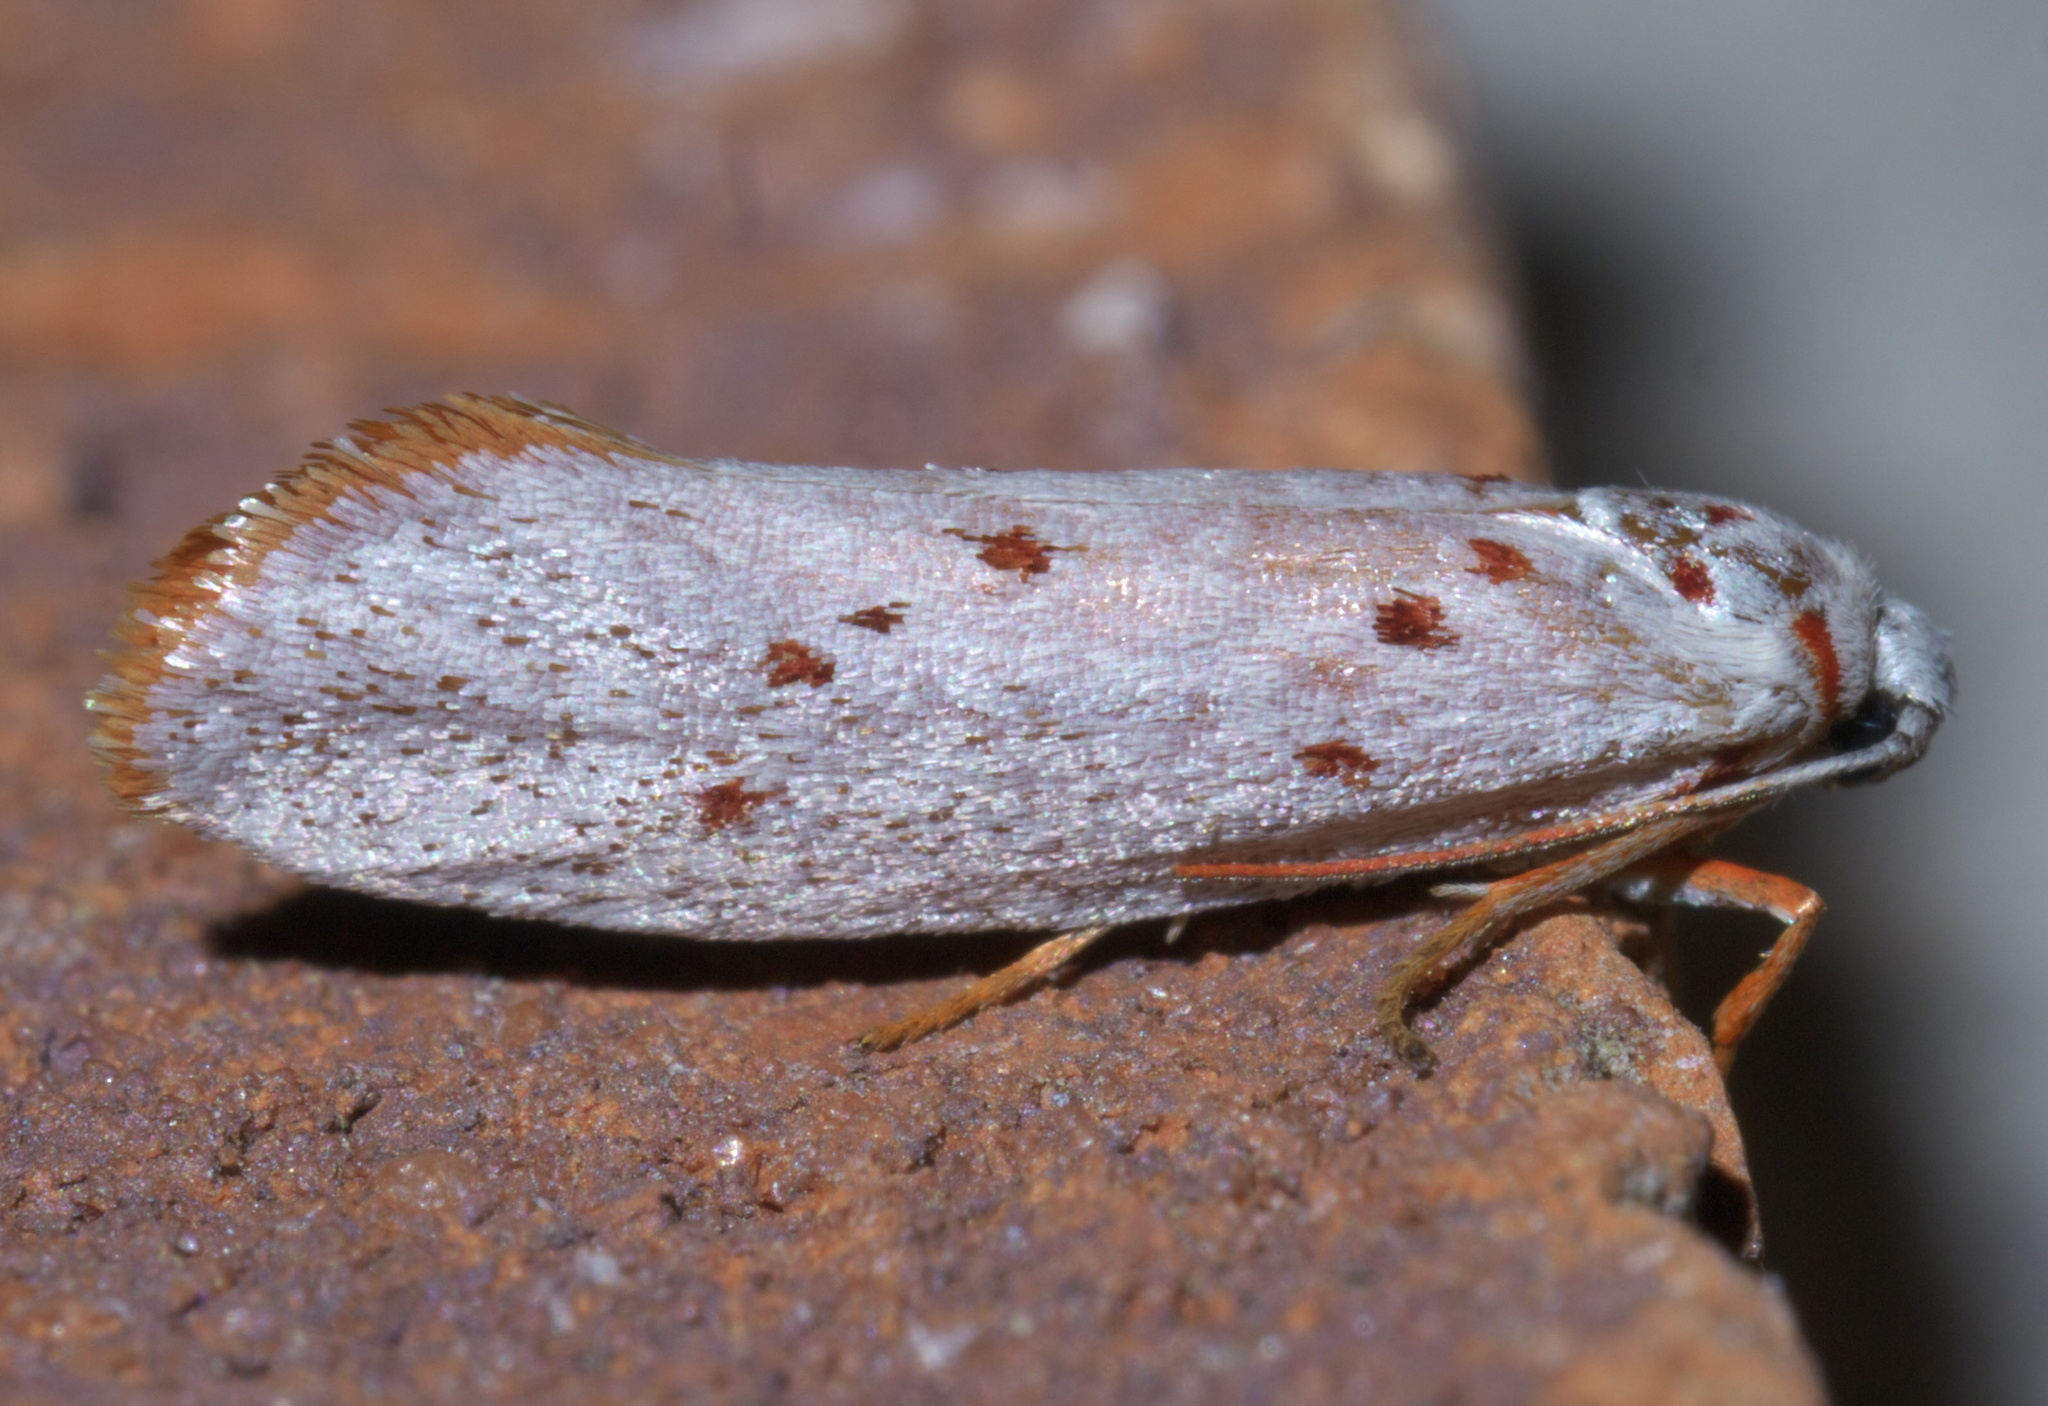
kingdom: Animalia
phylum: Arthropoda
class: Insecta
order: Lepidoptera
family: Lacturidae
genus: Lactura
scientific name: Lactura
